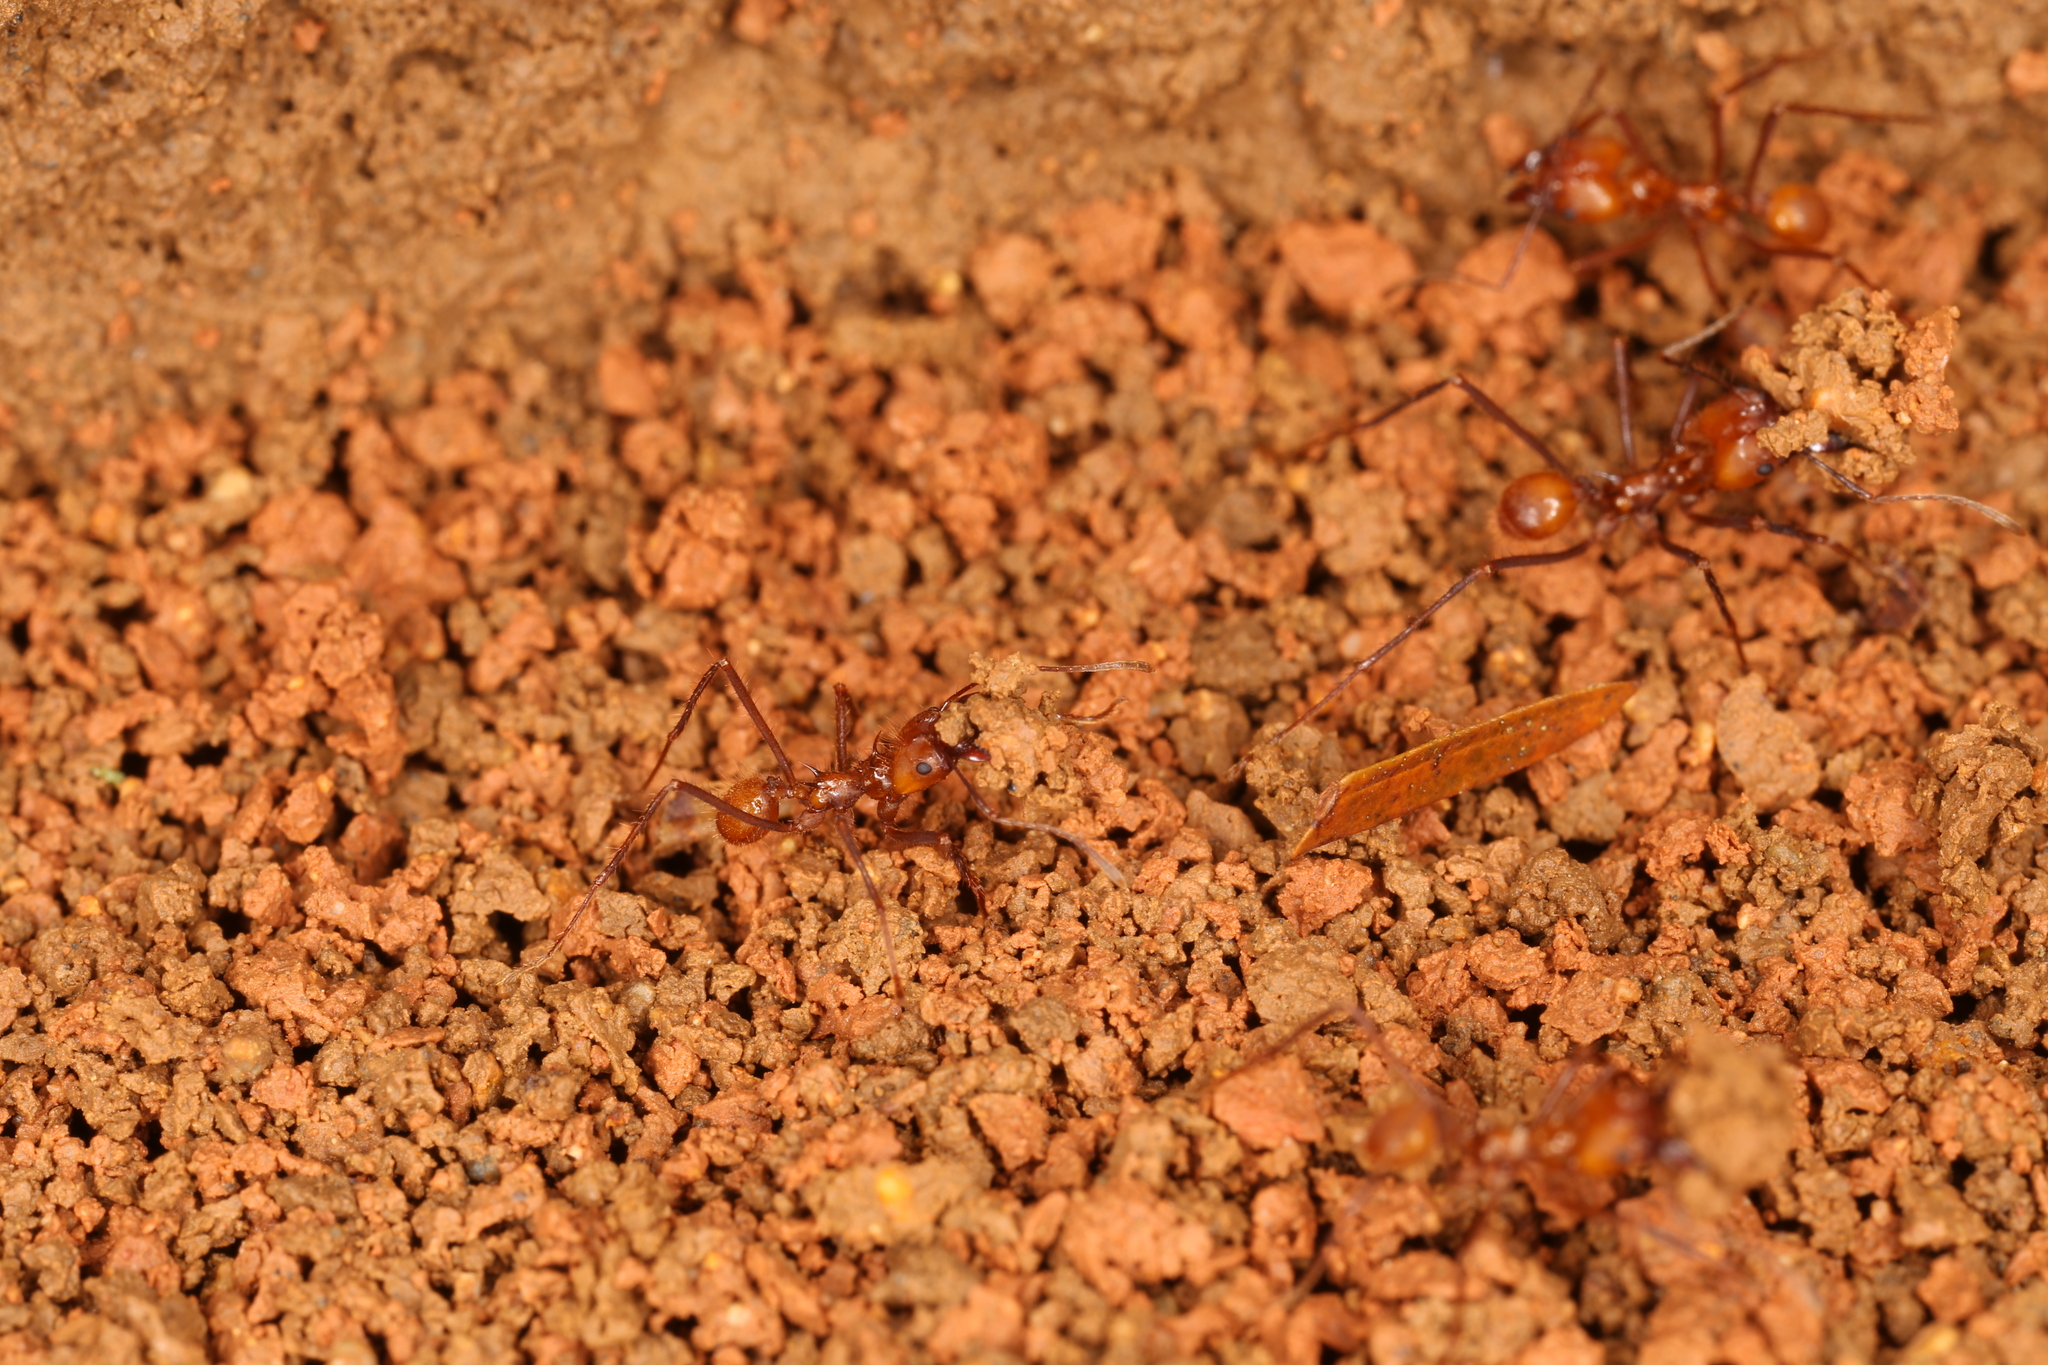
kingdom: Animalia
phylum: Arthropoda
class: Insecta
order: Hymenoptera
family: Formicidae
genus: Atta
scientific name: Atta cephalotes
